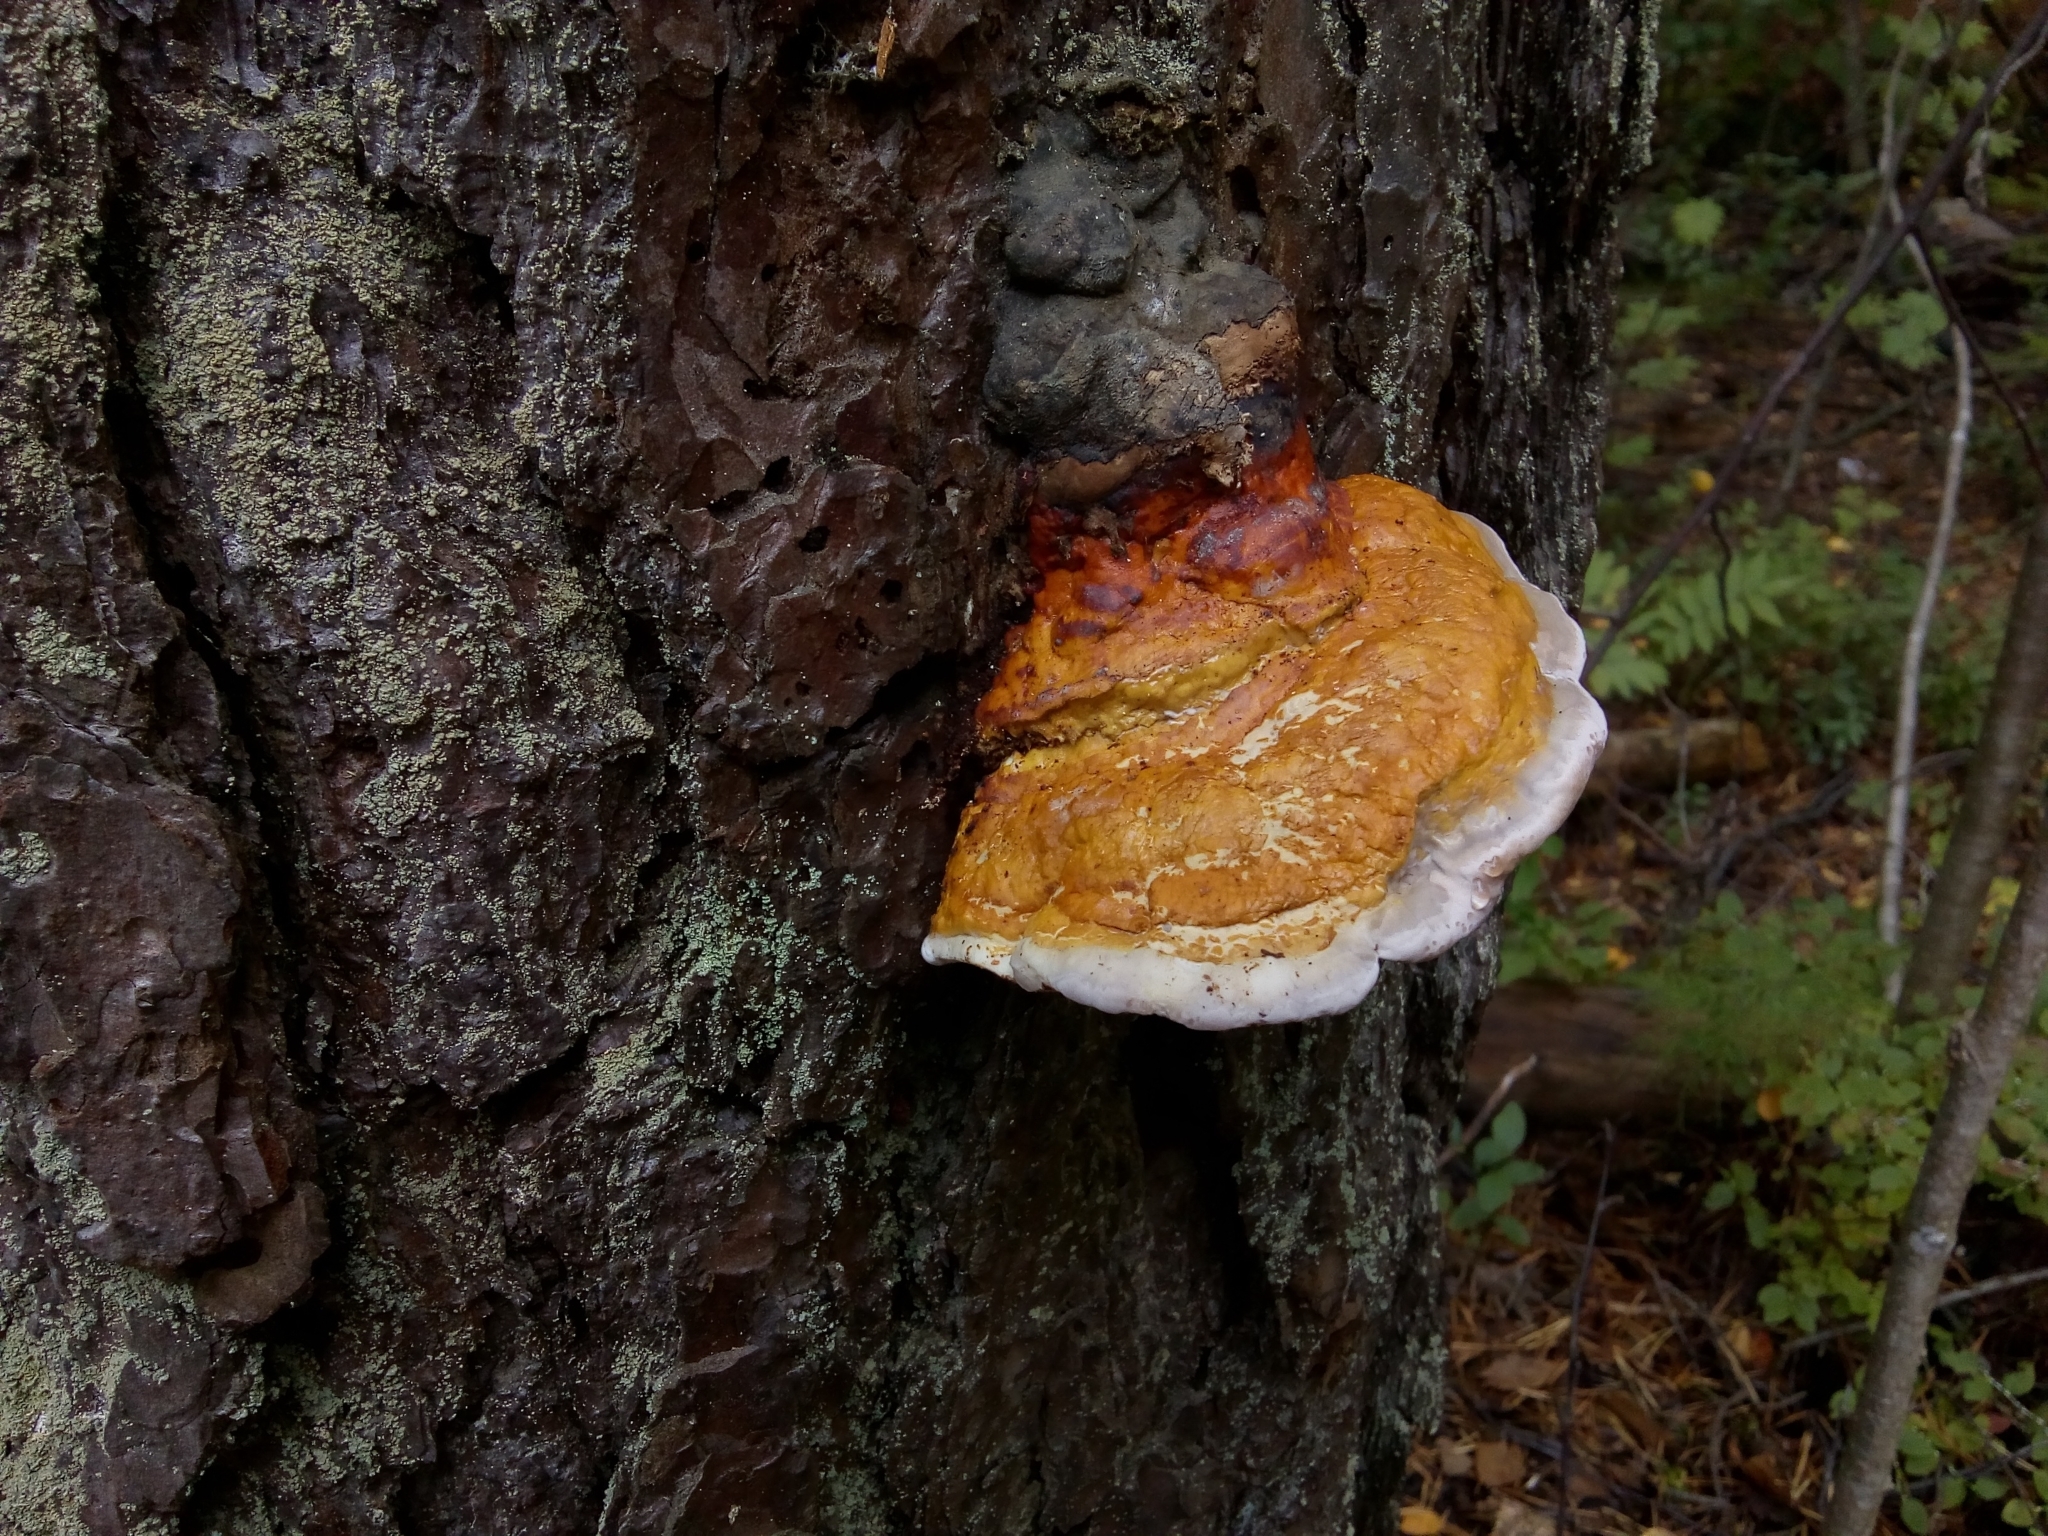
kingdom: Fungi
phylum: Basidiomycota
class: Agaricomycetes
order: Polyporales
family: Fomitopsidaceae
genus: Fomitopsis
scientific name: Fomitopsis pinicola
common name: Red-belted bracket
